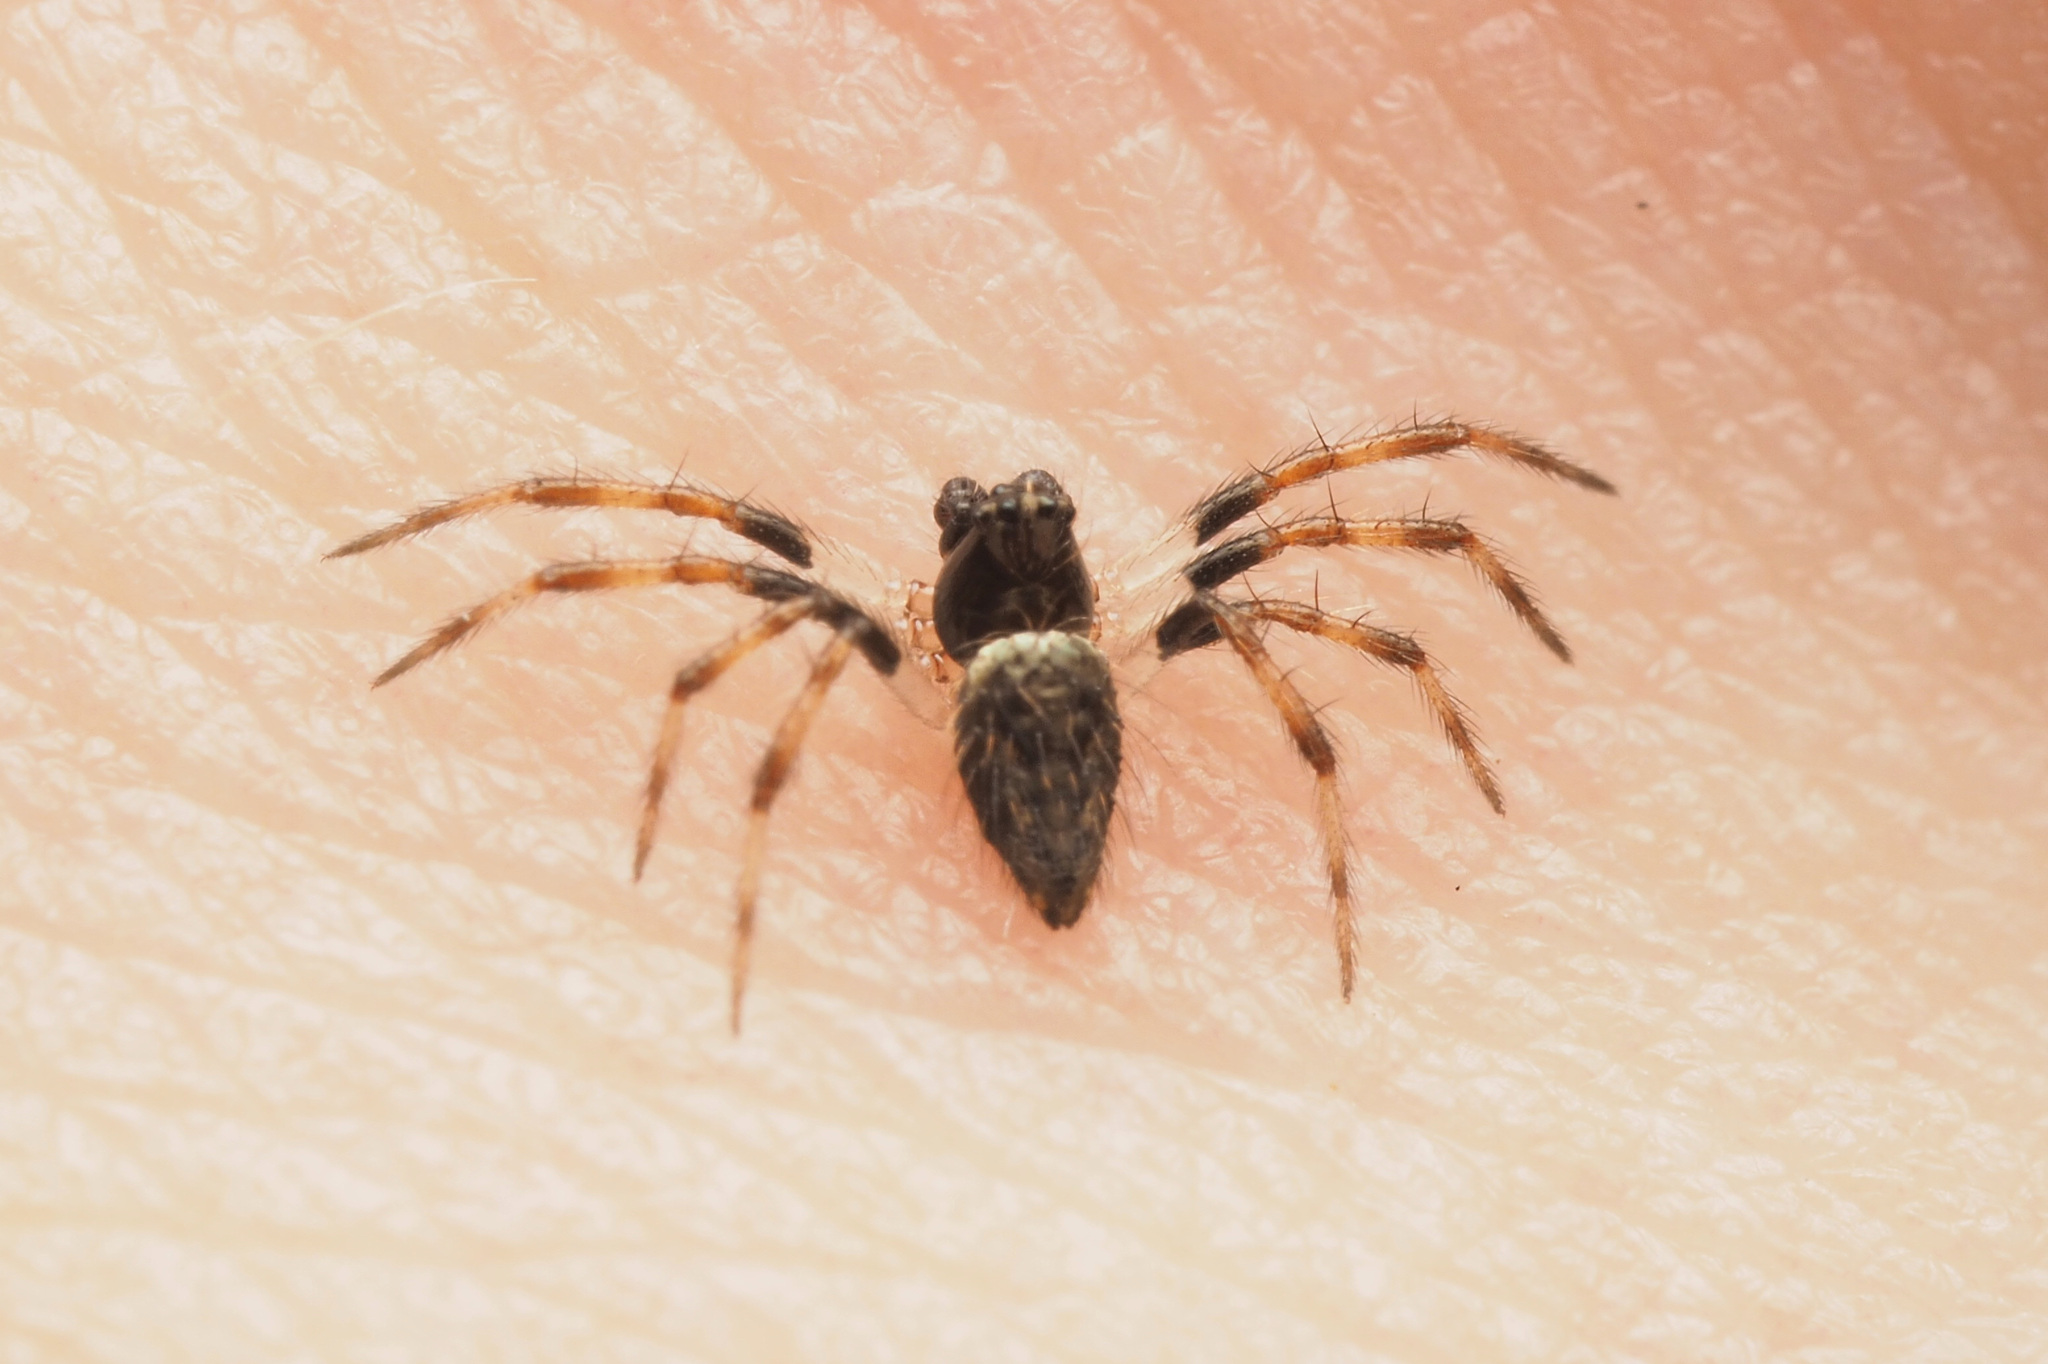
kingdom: Animalia
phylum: Arthropoda
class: Arachnida
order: Araneae
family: Theridiidae
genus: Euryopis
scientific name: Euryopis
